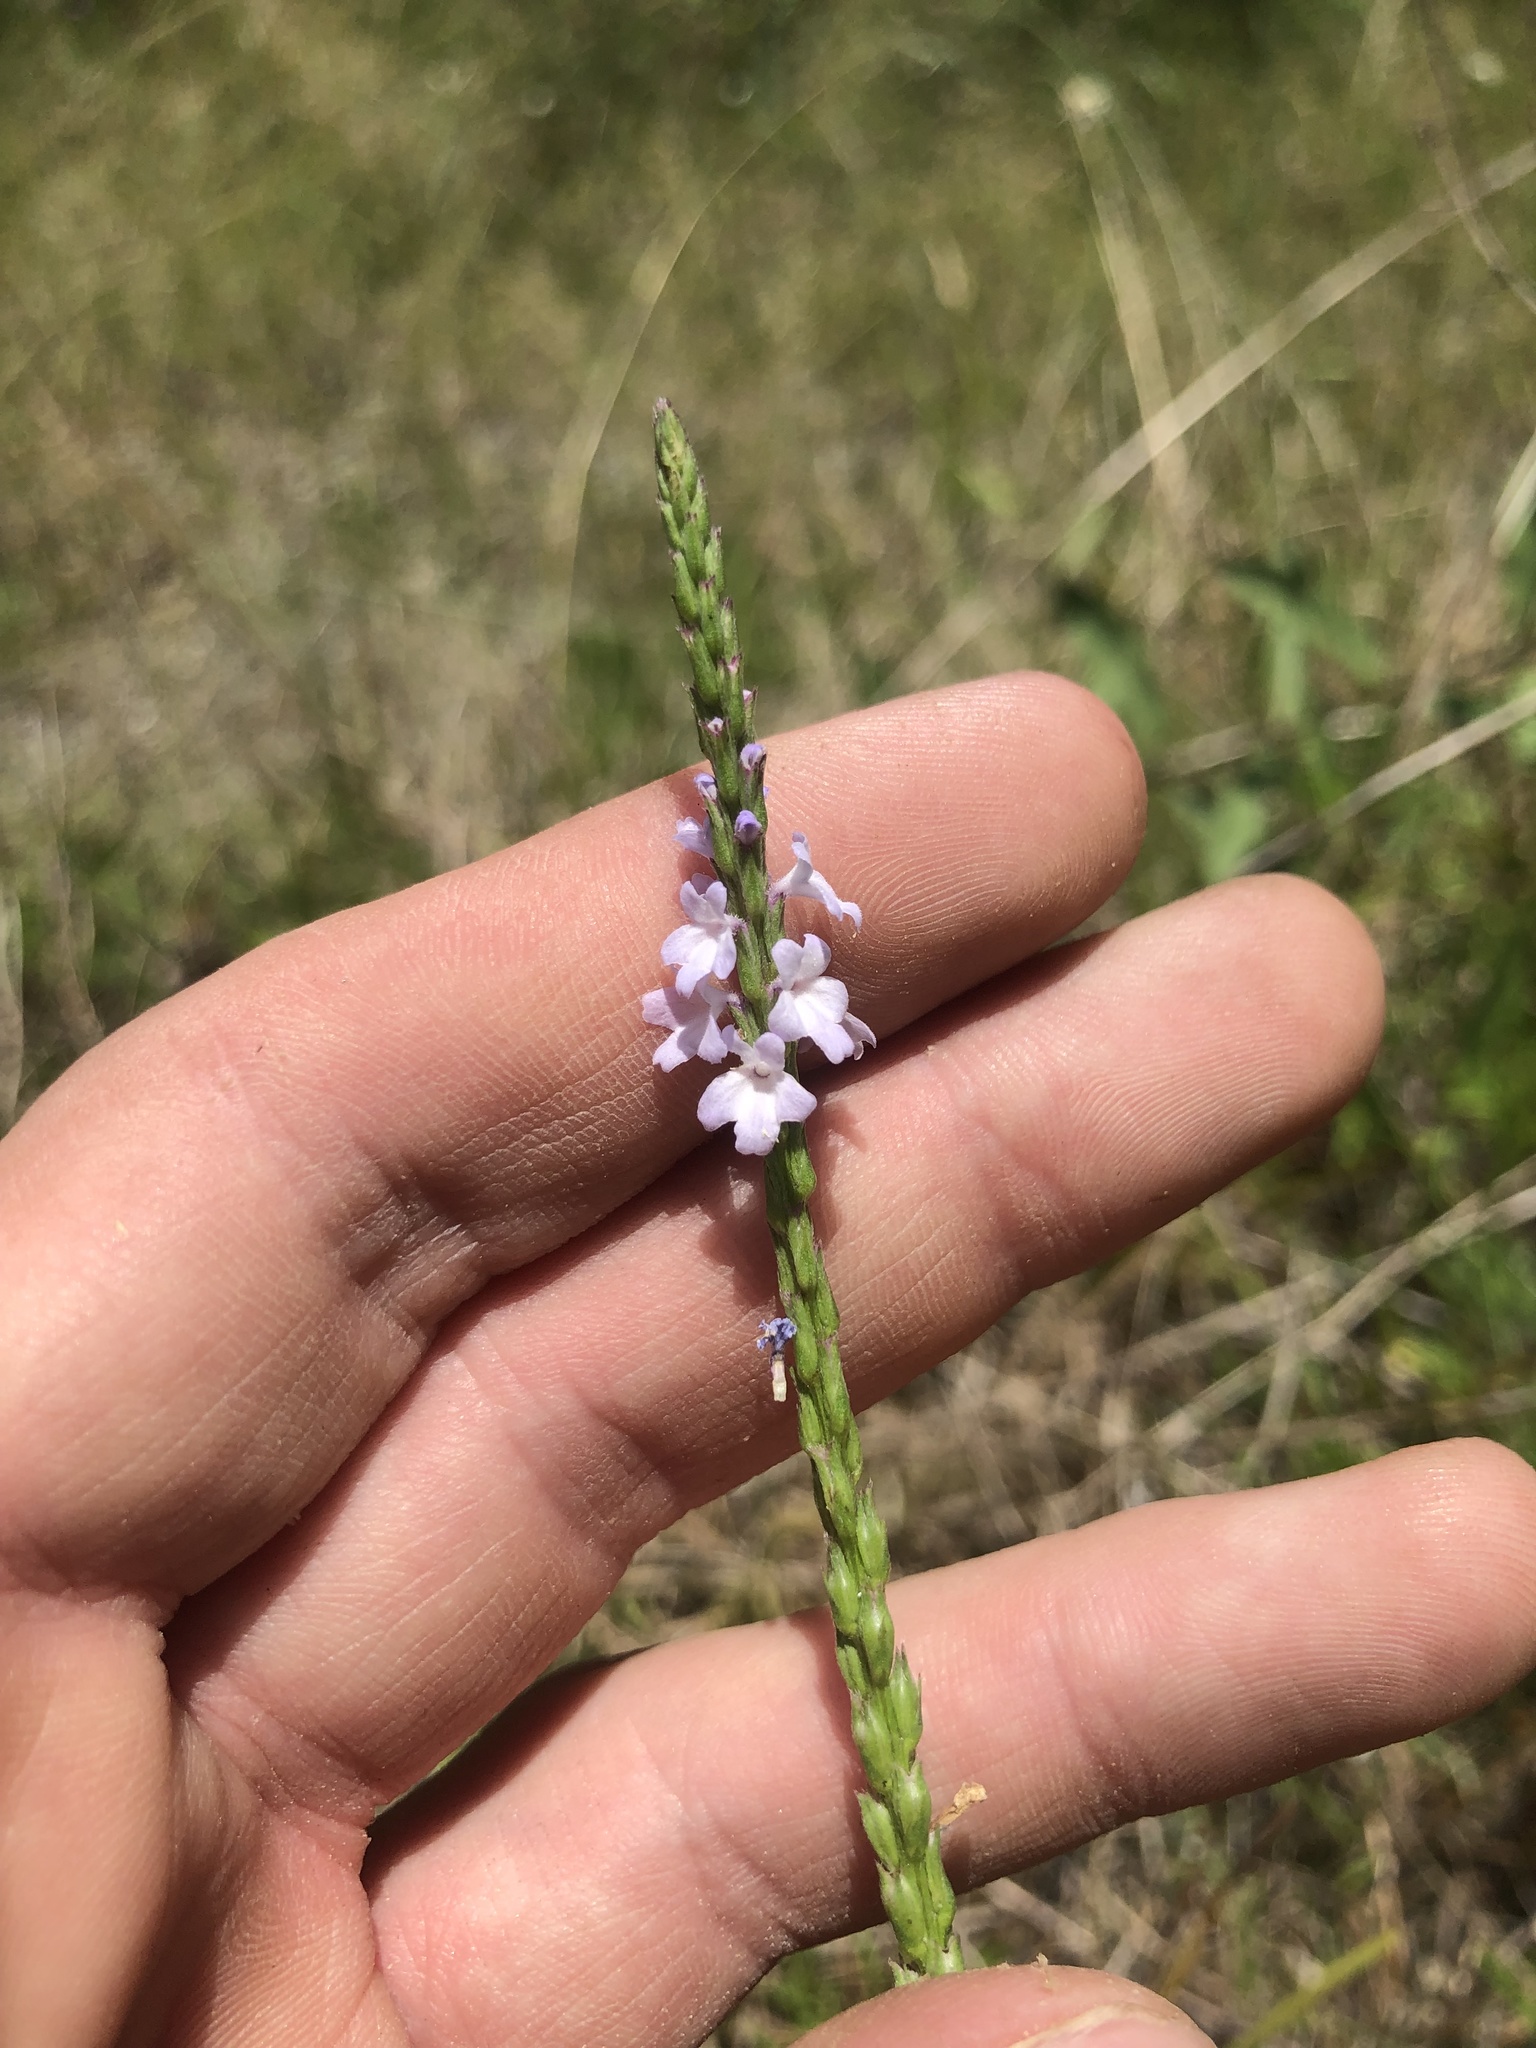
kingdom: Plantae
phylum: Tracheophyta
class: Magnoliopsida
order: Lamiales
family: Verbenaceae
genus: Verbena
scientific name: Verbena simplex
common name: Narrow-leaf vervain
